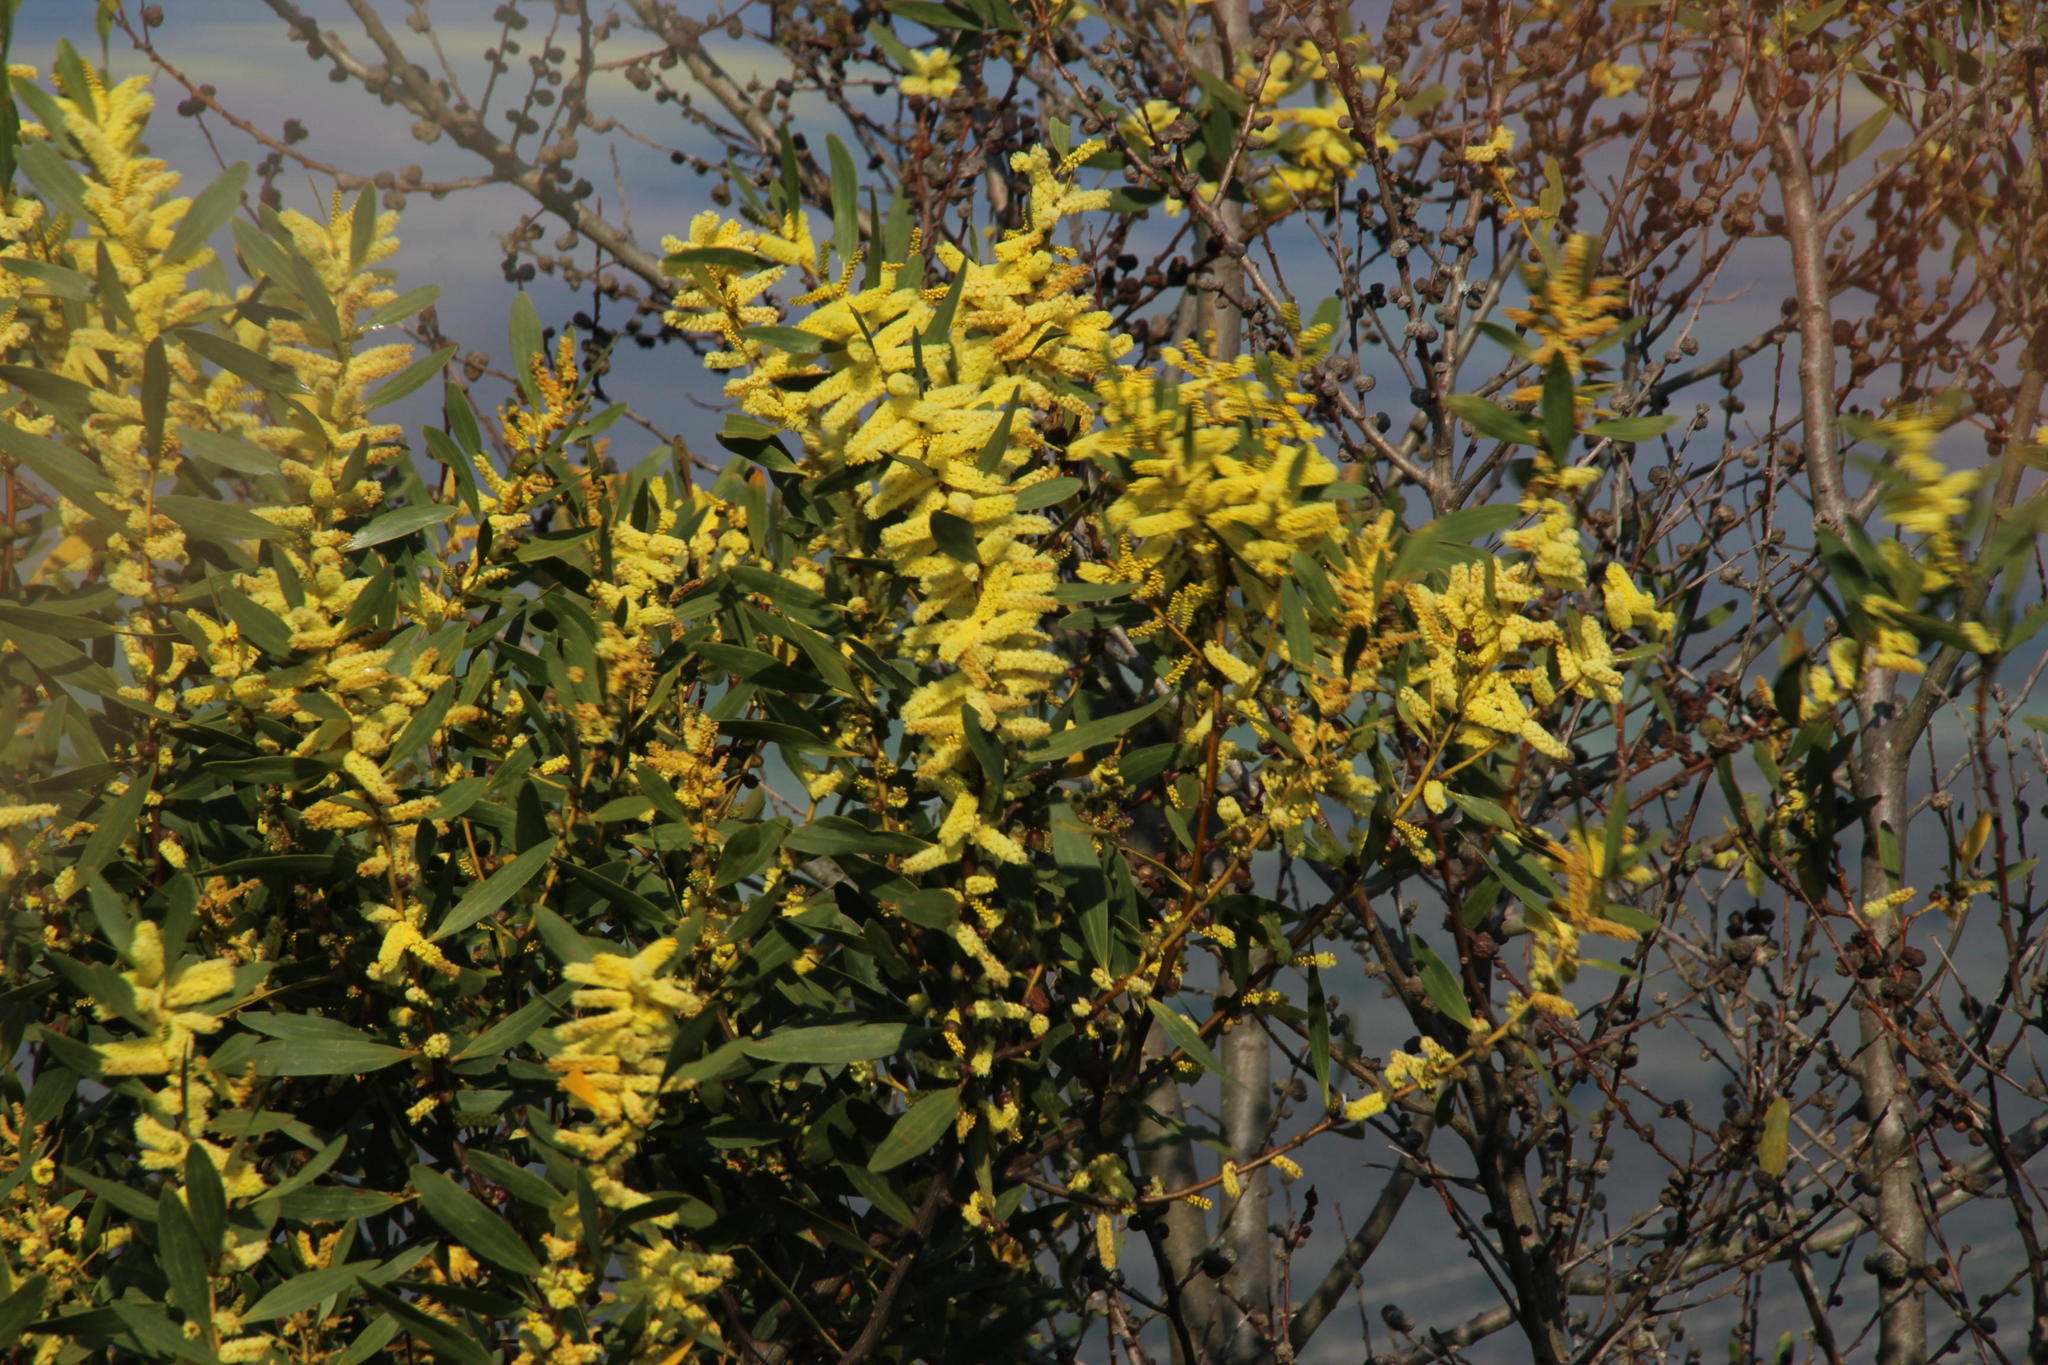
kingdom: Plantae
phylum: Tracheophyta
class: Magnoliopsida
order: Fabales
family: Fabaceae
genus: Acacia
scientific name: Acacia longifolia
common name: Sydney golden wattle
